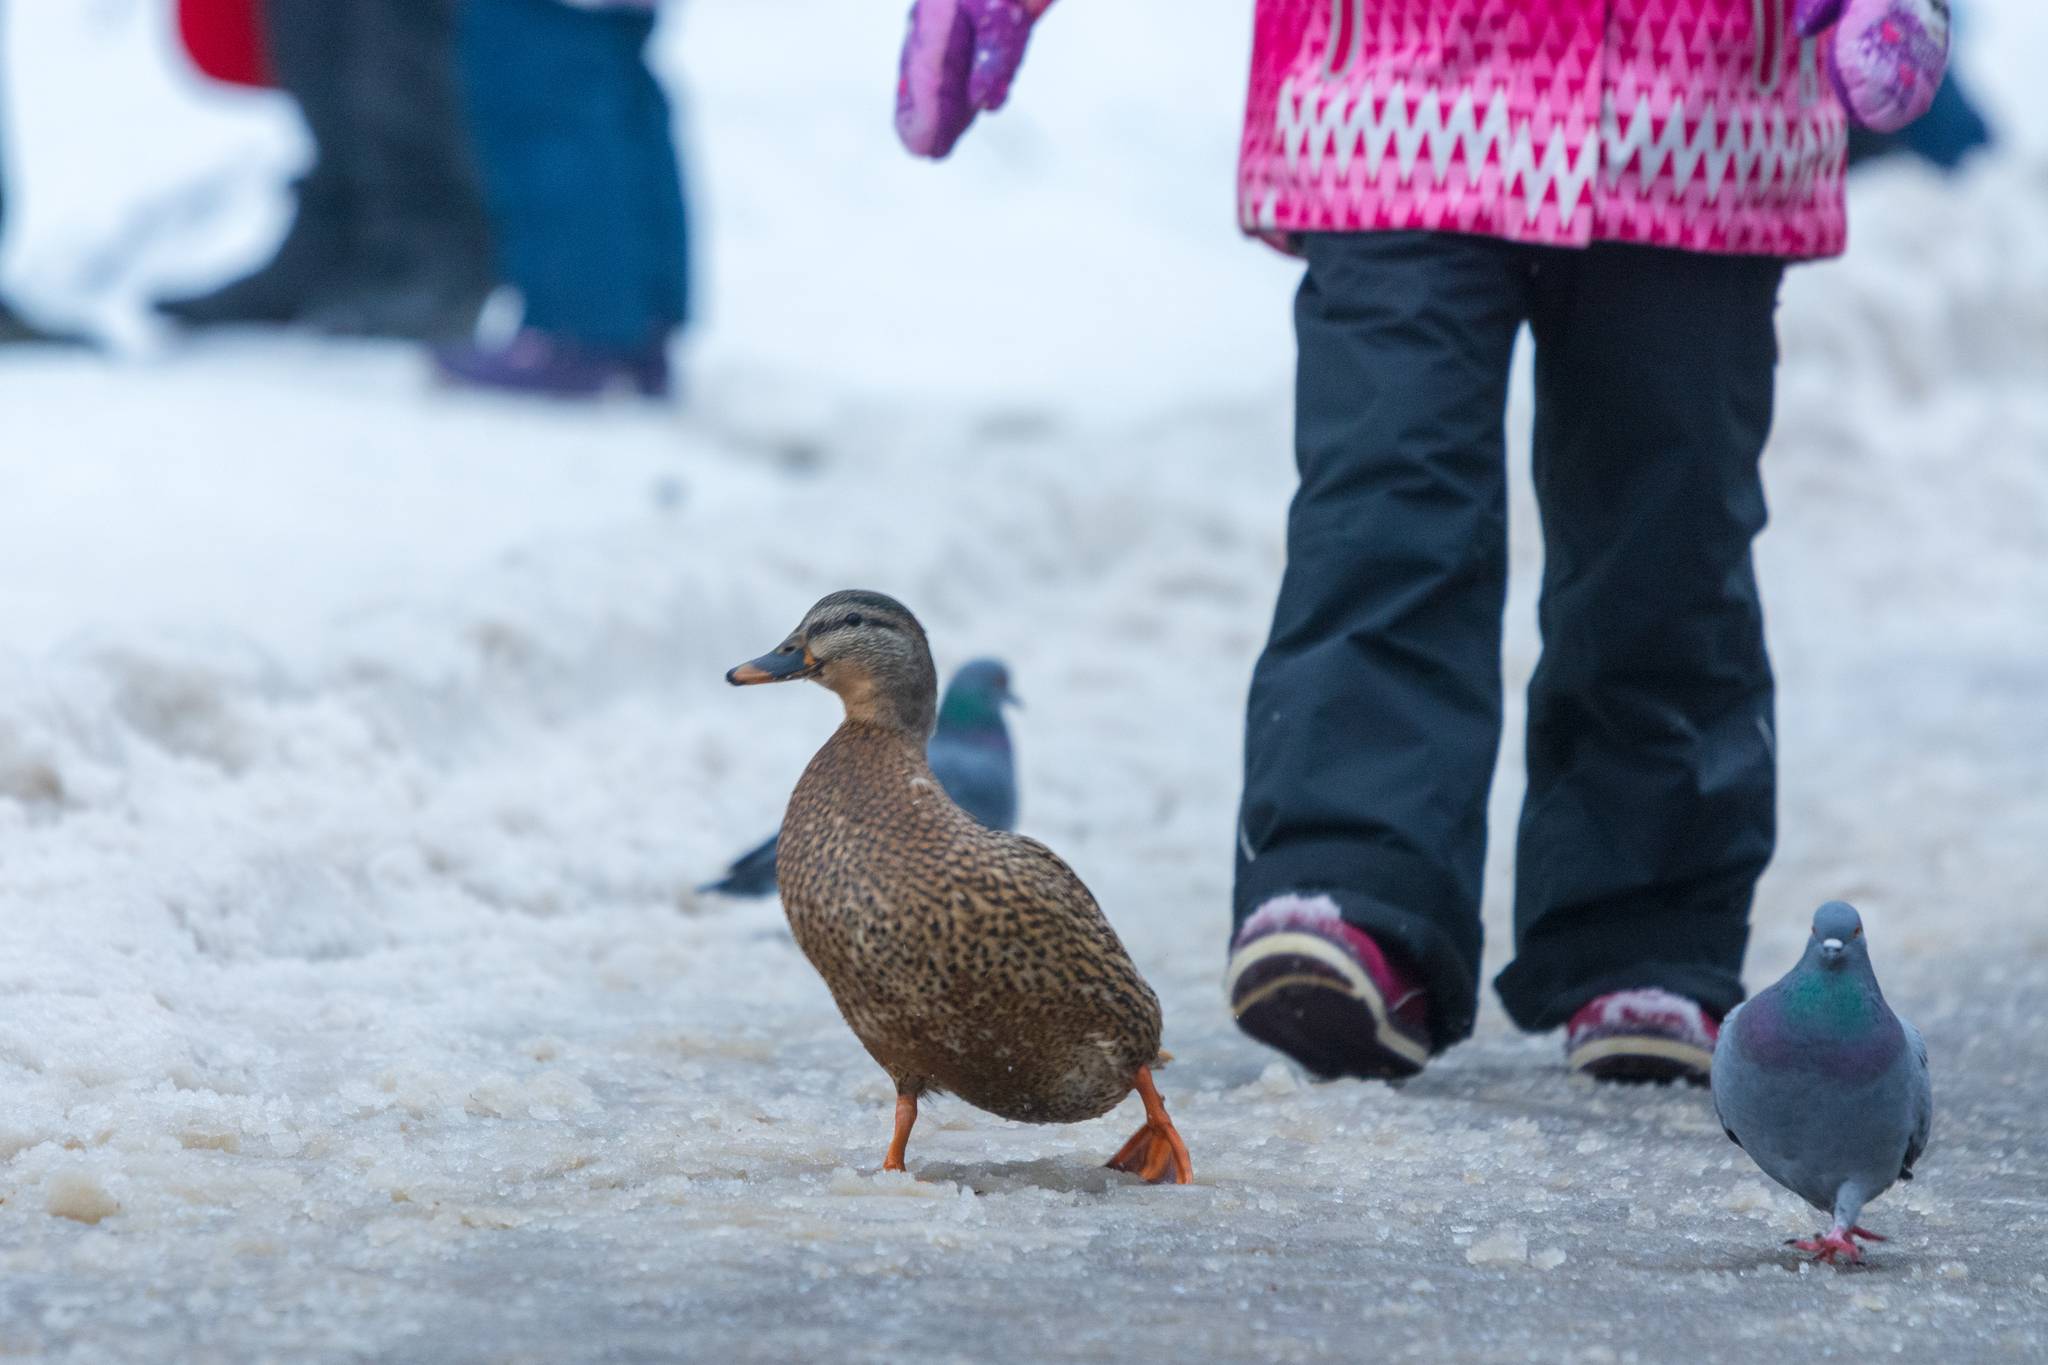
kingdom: Animalia
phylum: Chordata
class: Aves
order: Anseriformes
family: Anatidae
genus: Anas
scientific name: Anas platyrhynchos
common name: Mallard
